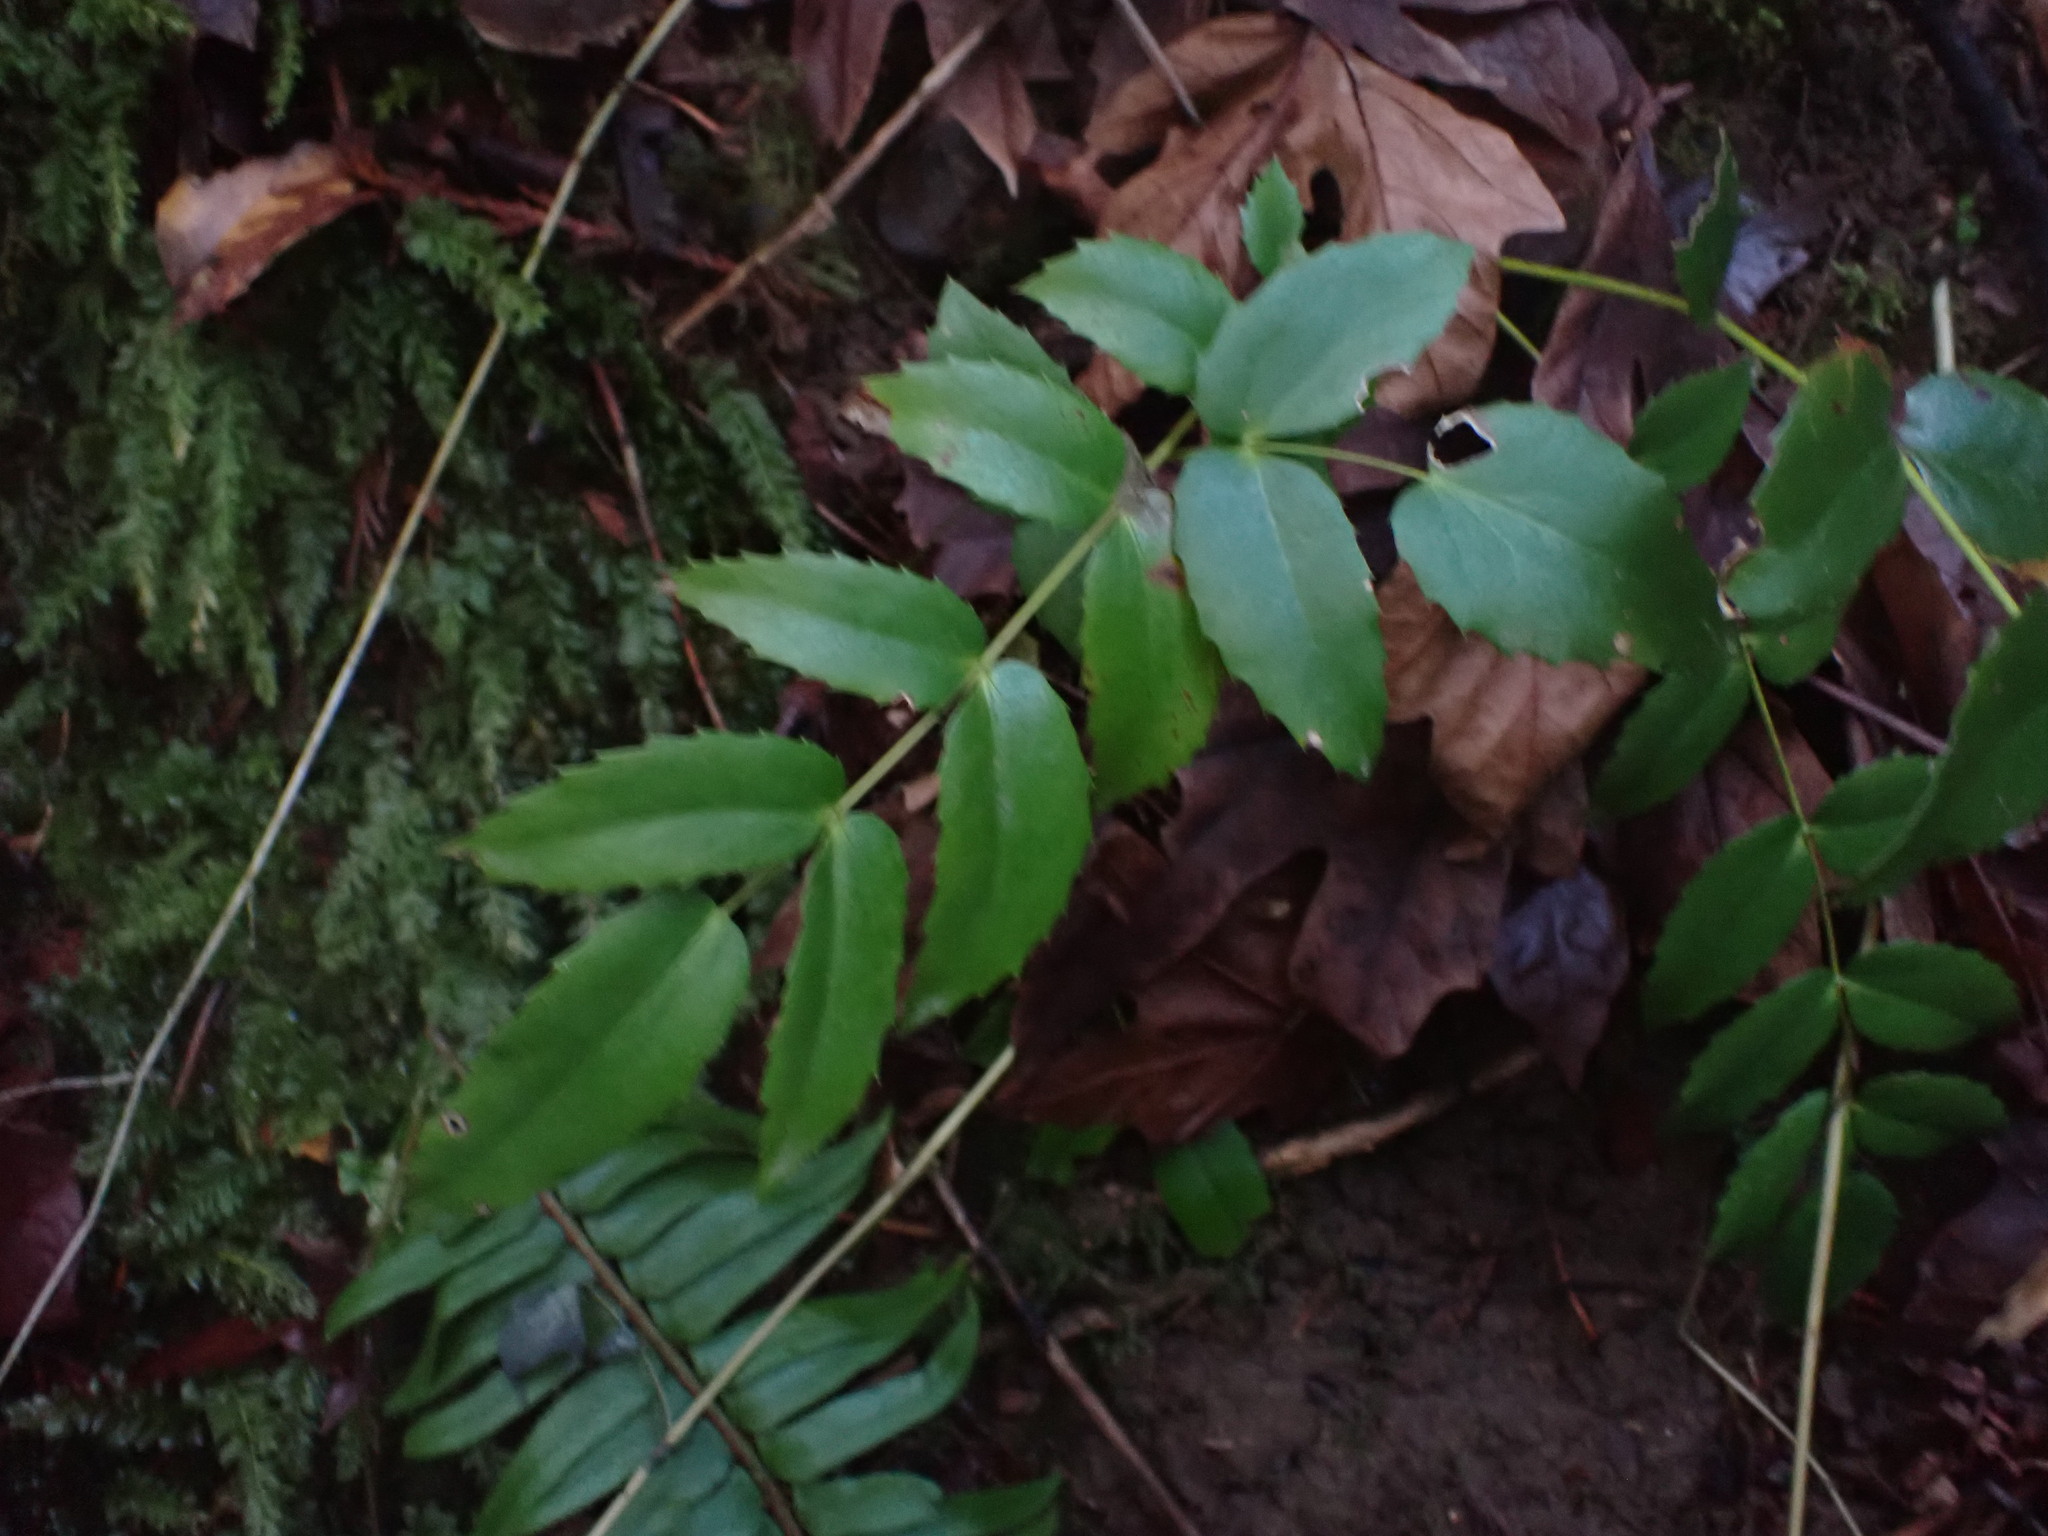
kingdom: Plantae
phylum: Tracheophyta
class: Magnoliopsida
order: Ranunculales
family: Berberidaceae
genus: Mahonia
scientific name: Mahonia nervosa
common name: Cascade oregon-grape
